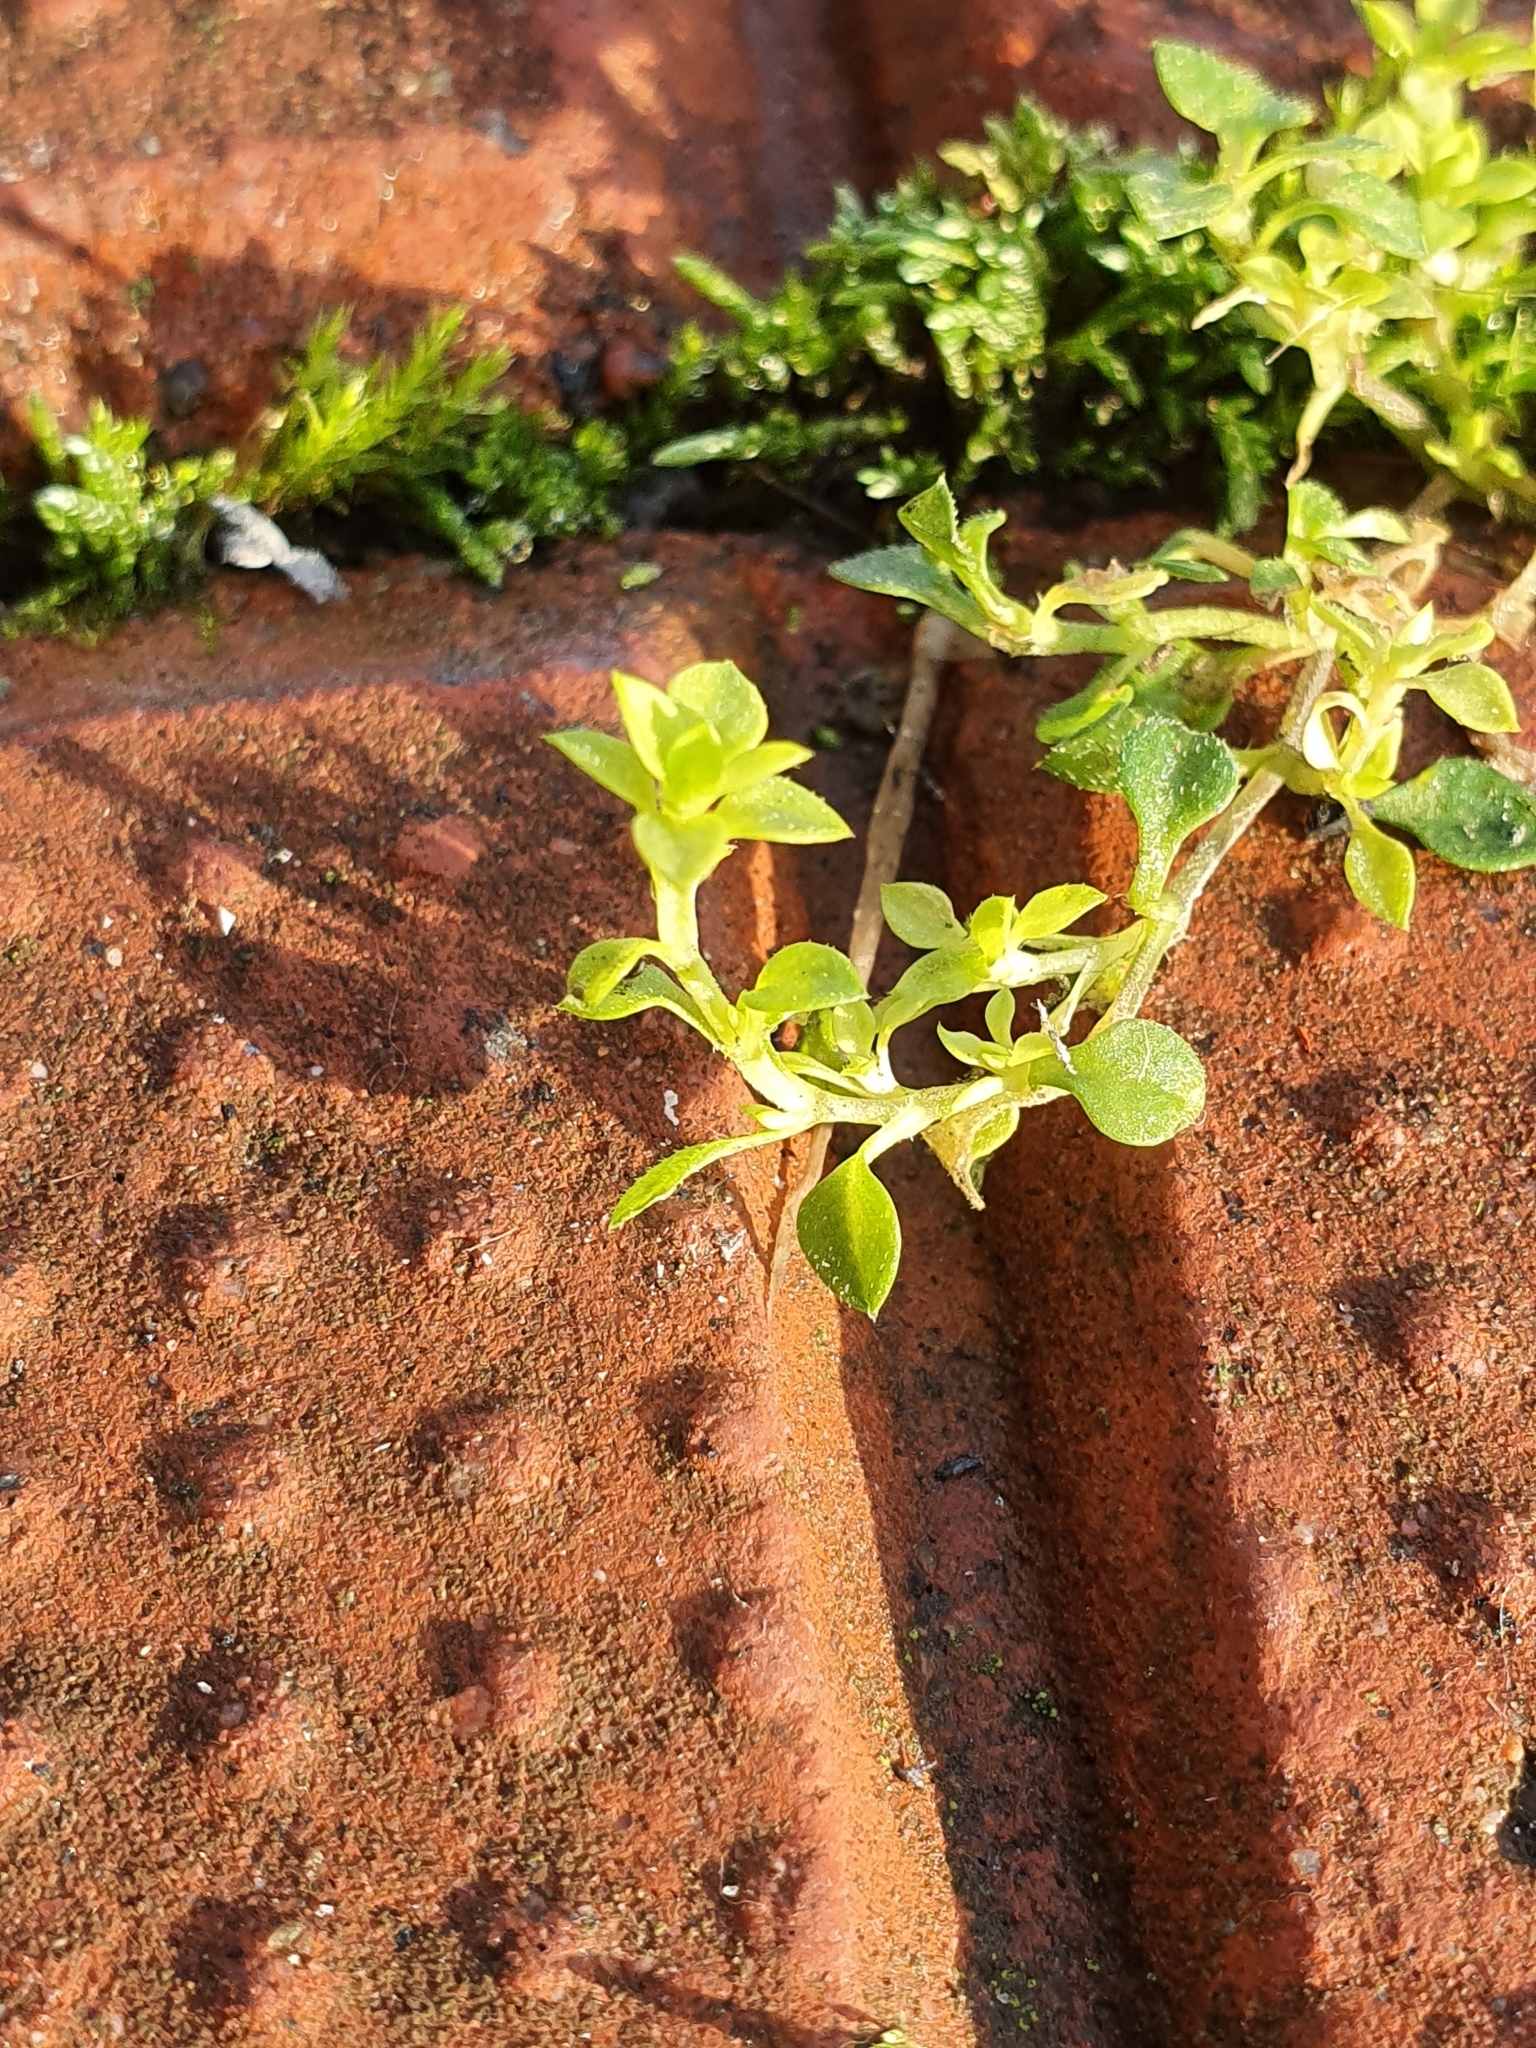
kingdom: Plantae
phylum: Tracheophyta
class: Magnoliopsida
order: Caryophyllales
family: Caryophyllaceae
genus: Stellaria
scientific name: Stellaria media
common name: Common chickweed
